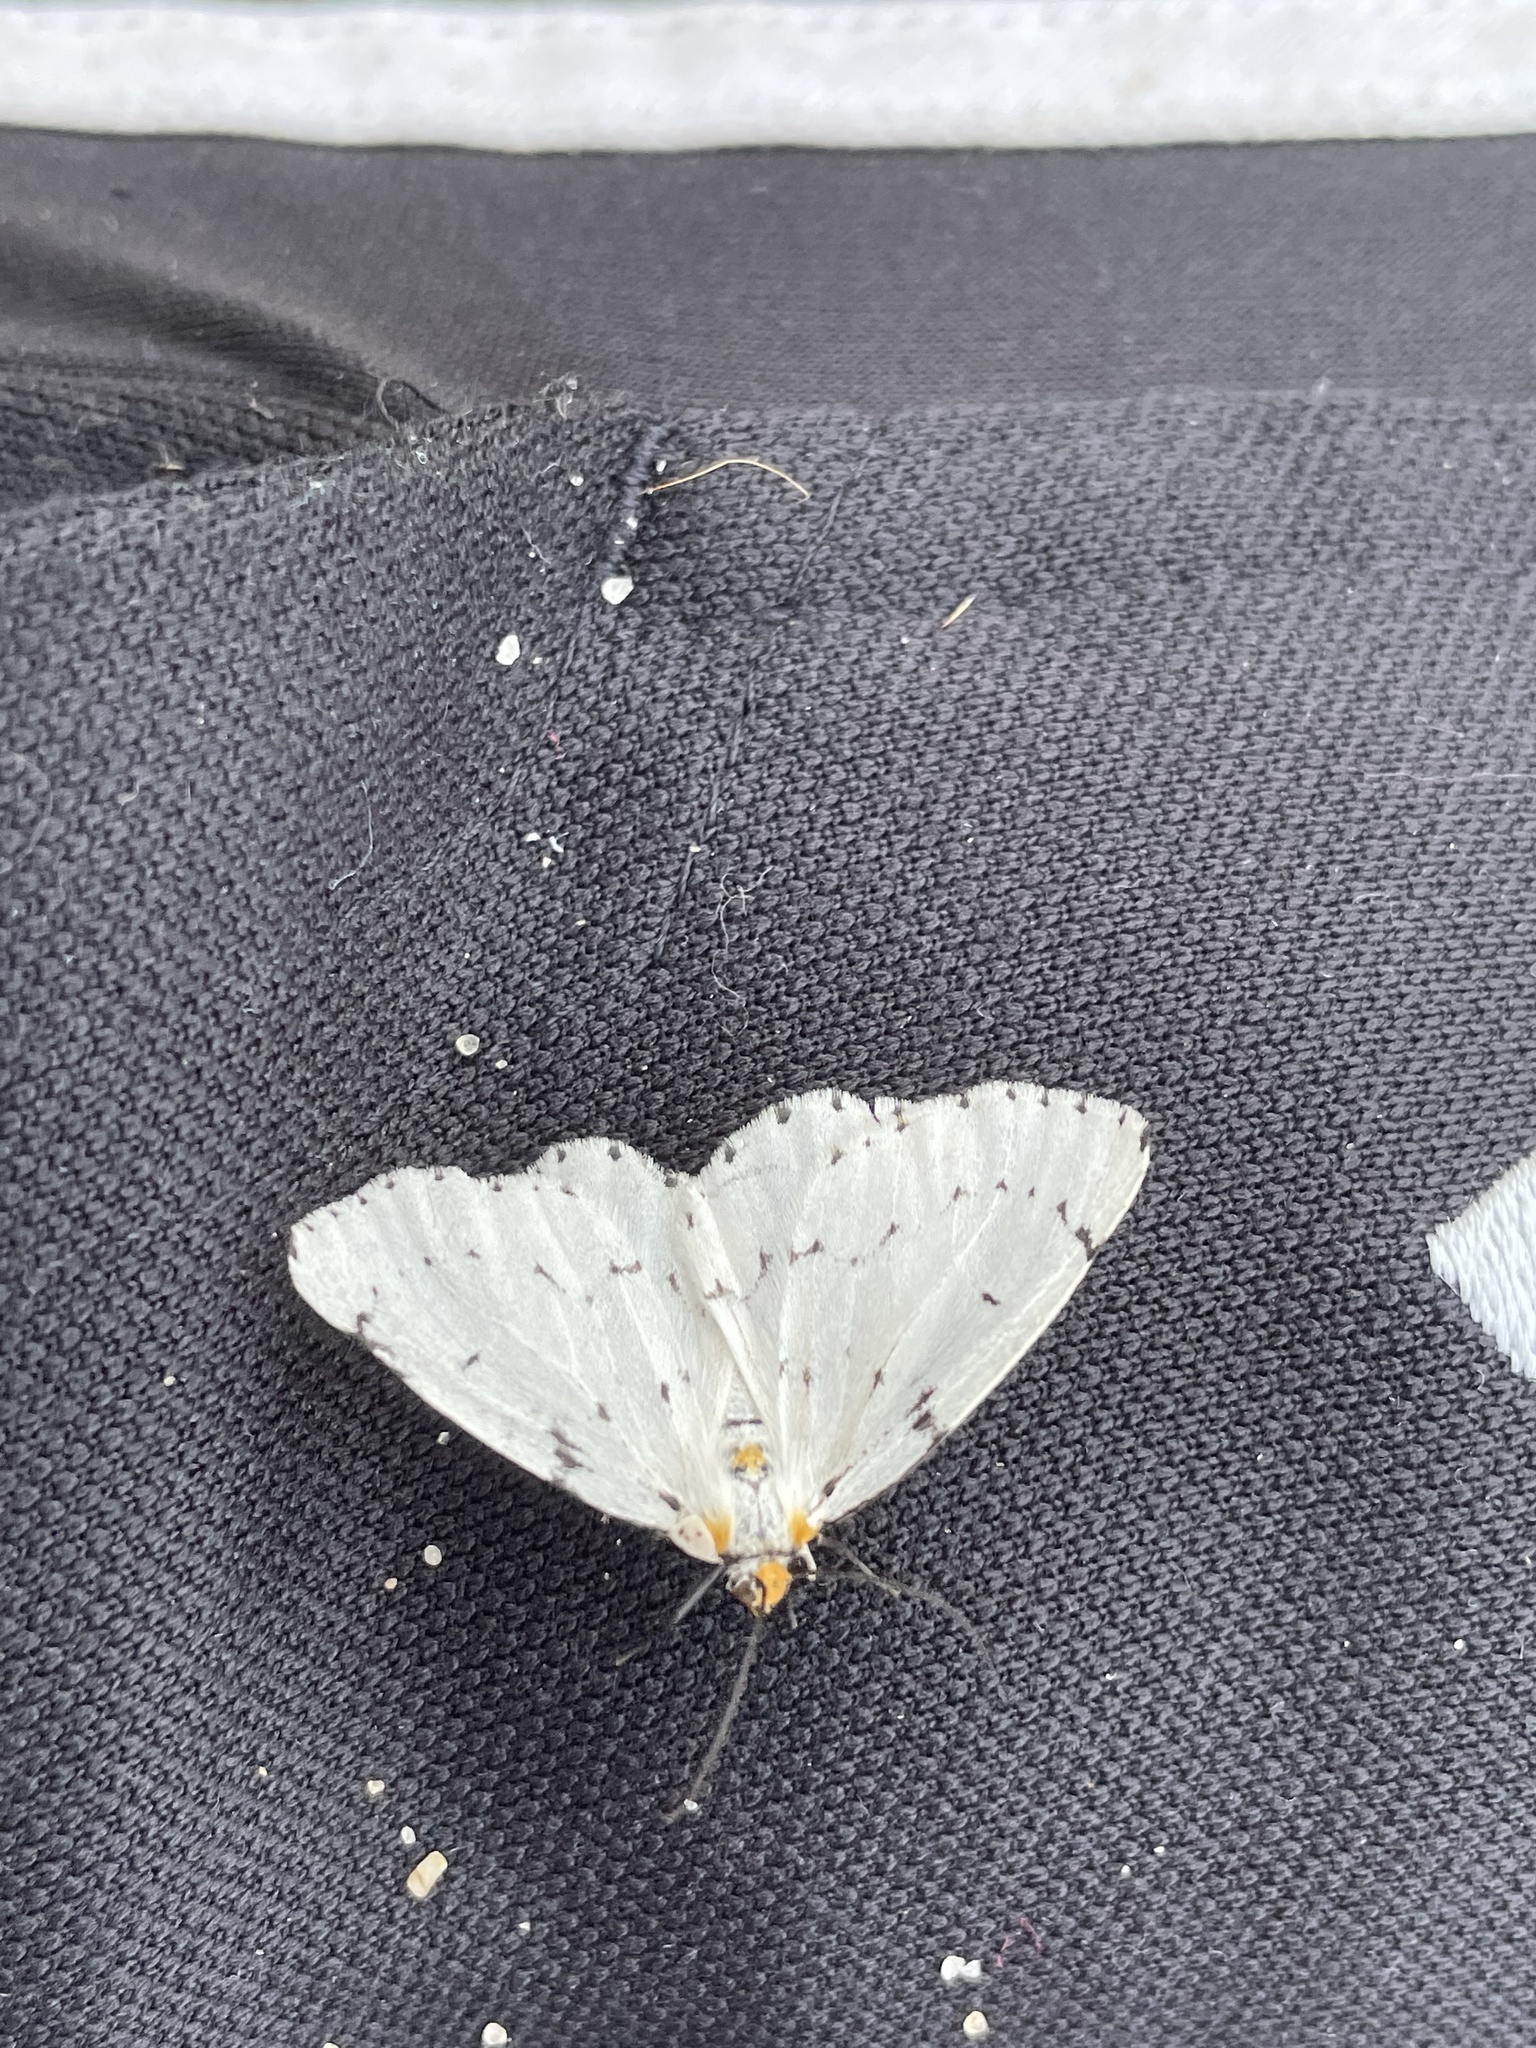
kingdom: Animalia
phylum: Arthropoda
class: Insecta
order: Lepidoptera
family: Geometridae
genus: Cingilia
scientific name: Cingilia catenaria
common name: Chain-dotted geometer
